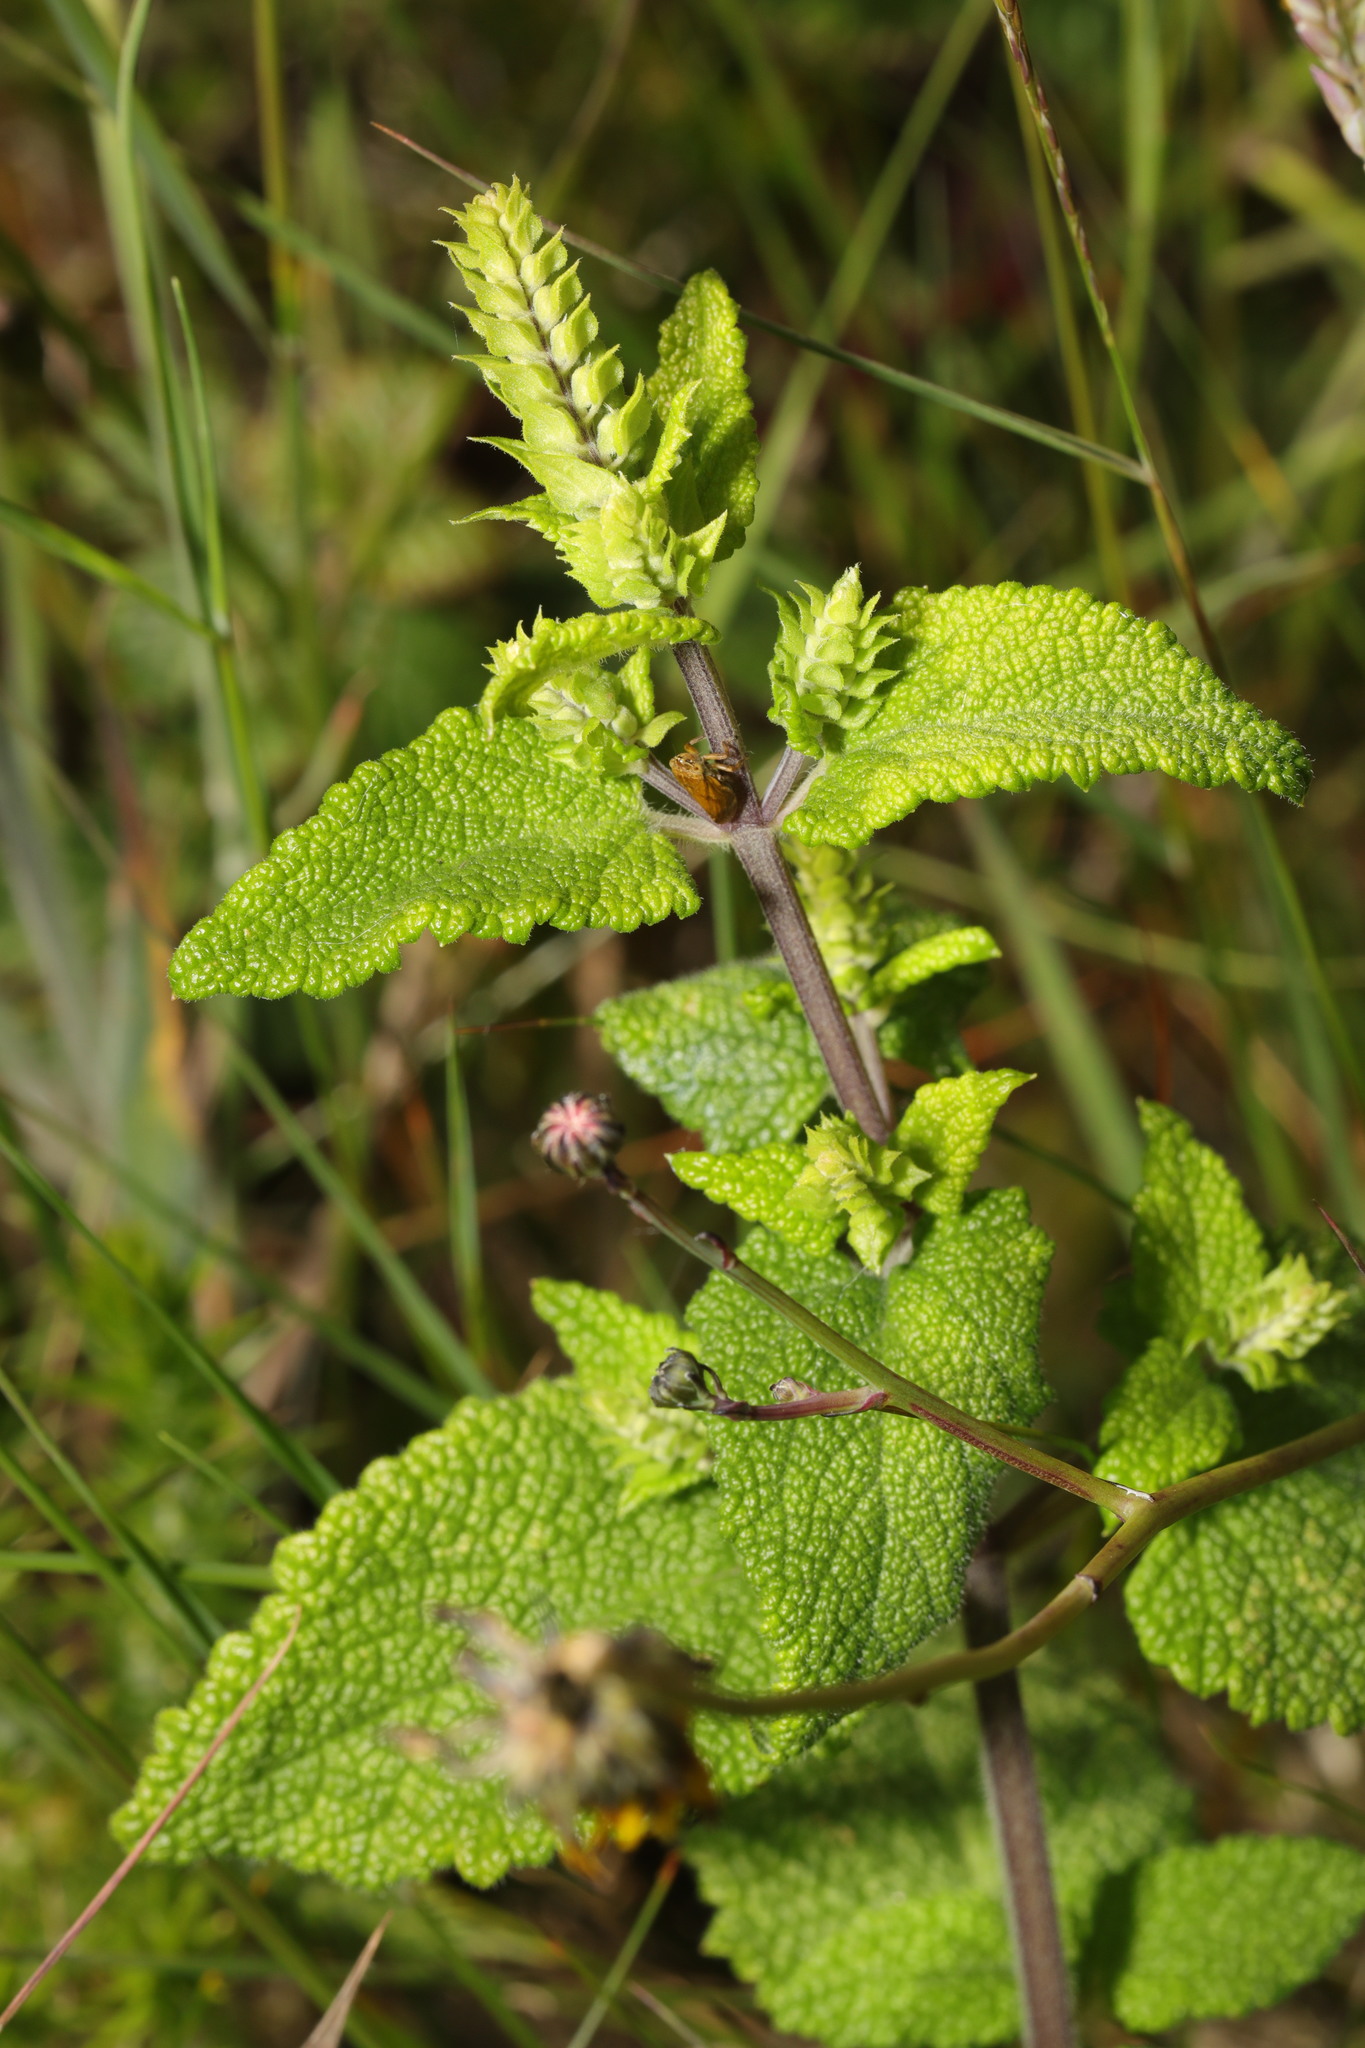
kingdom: Plantae
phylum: Tracheophyta
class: Magnoliopsida
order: Lamiales
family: Lamiaceae
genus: Teucrium
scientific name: Teucrium scorodonia
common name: Woodland germander
